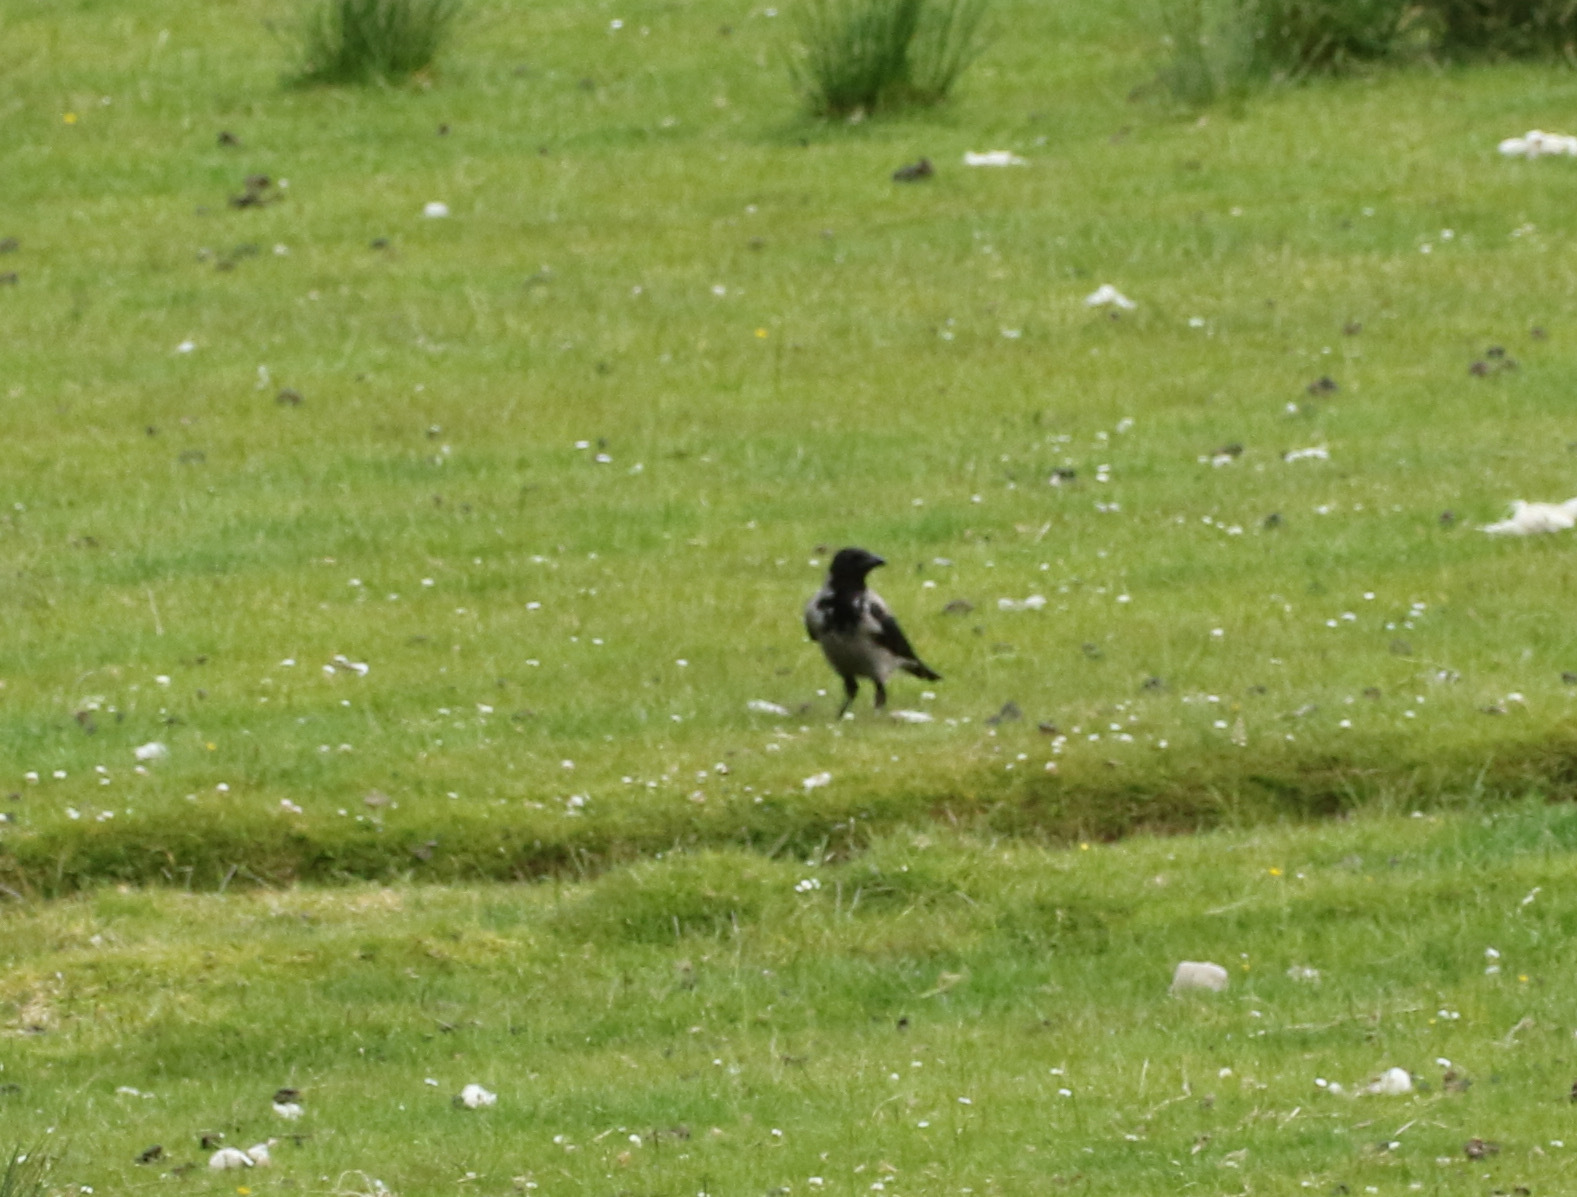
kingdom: Animalia
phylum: Chordata
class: Aves
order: Passeriformes
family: Corvidae
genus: Corvus
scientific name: Corvus cornix
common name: Hooded crow
